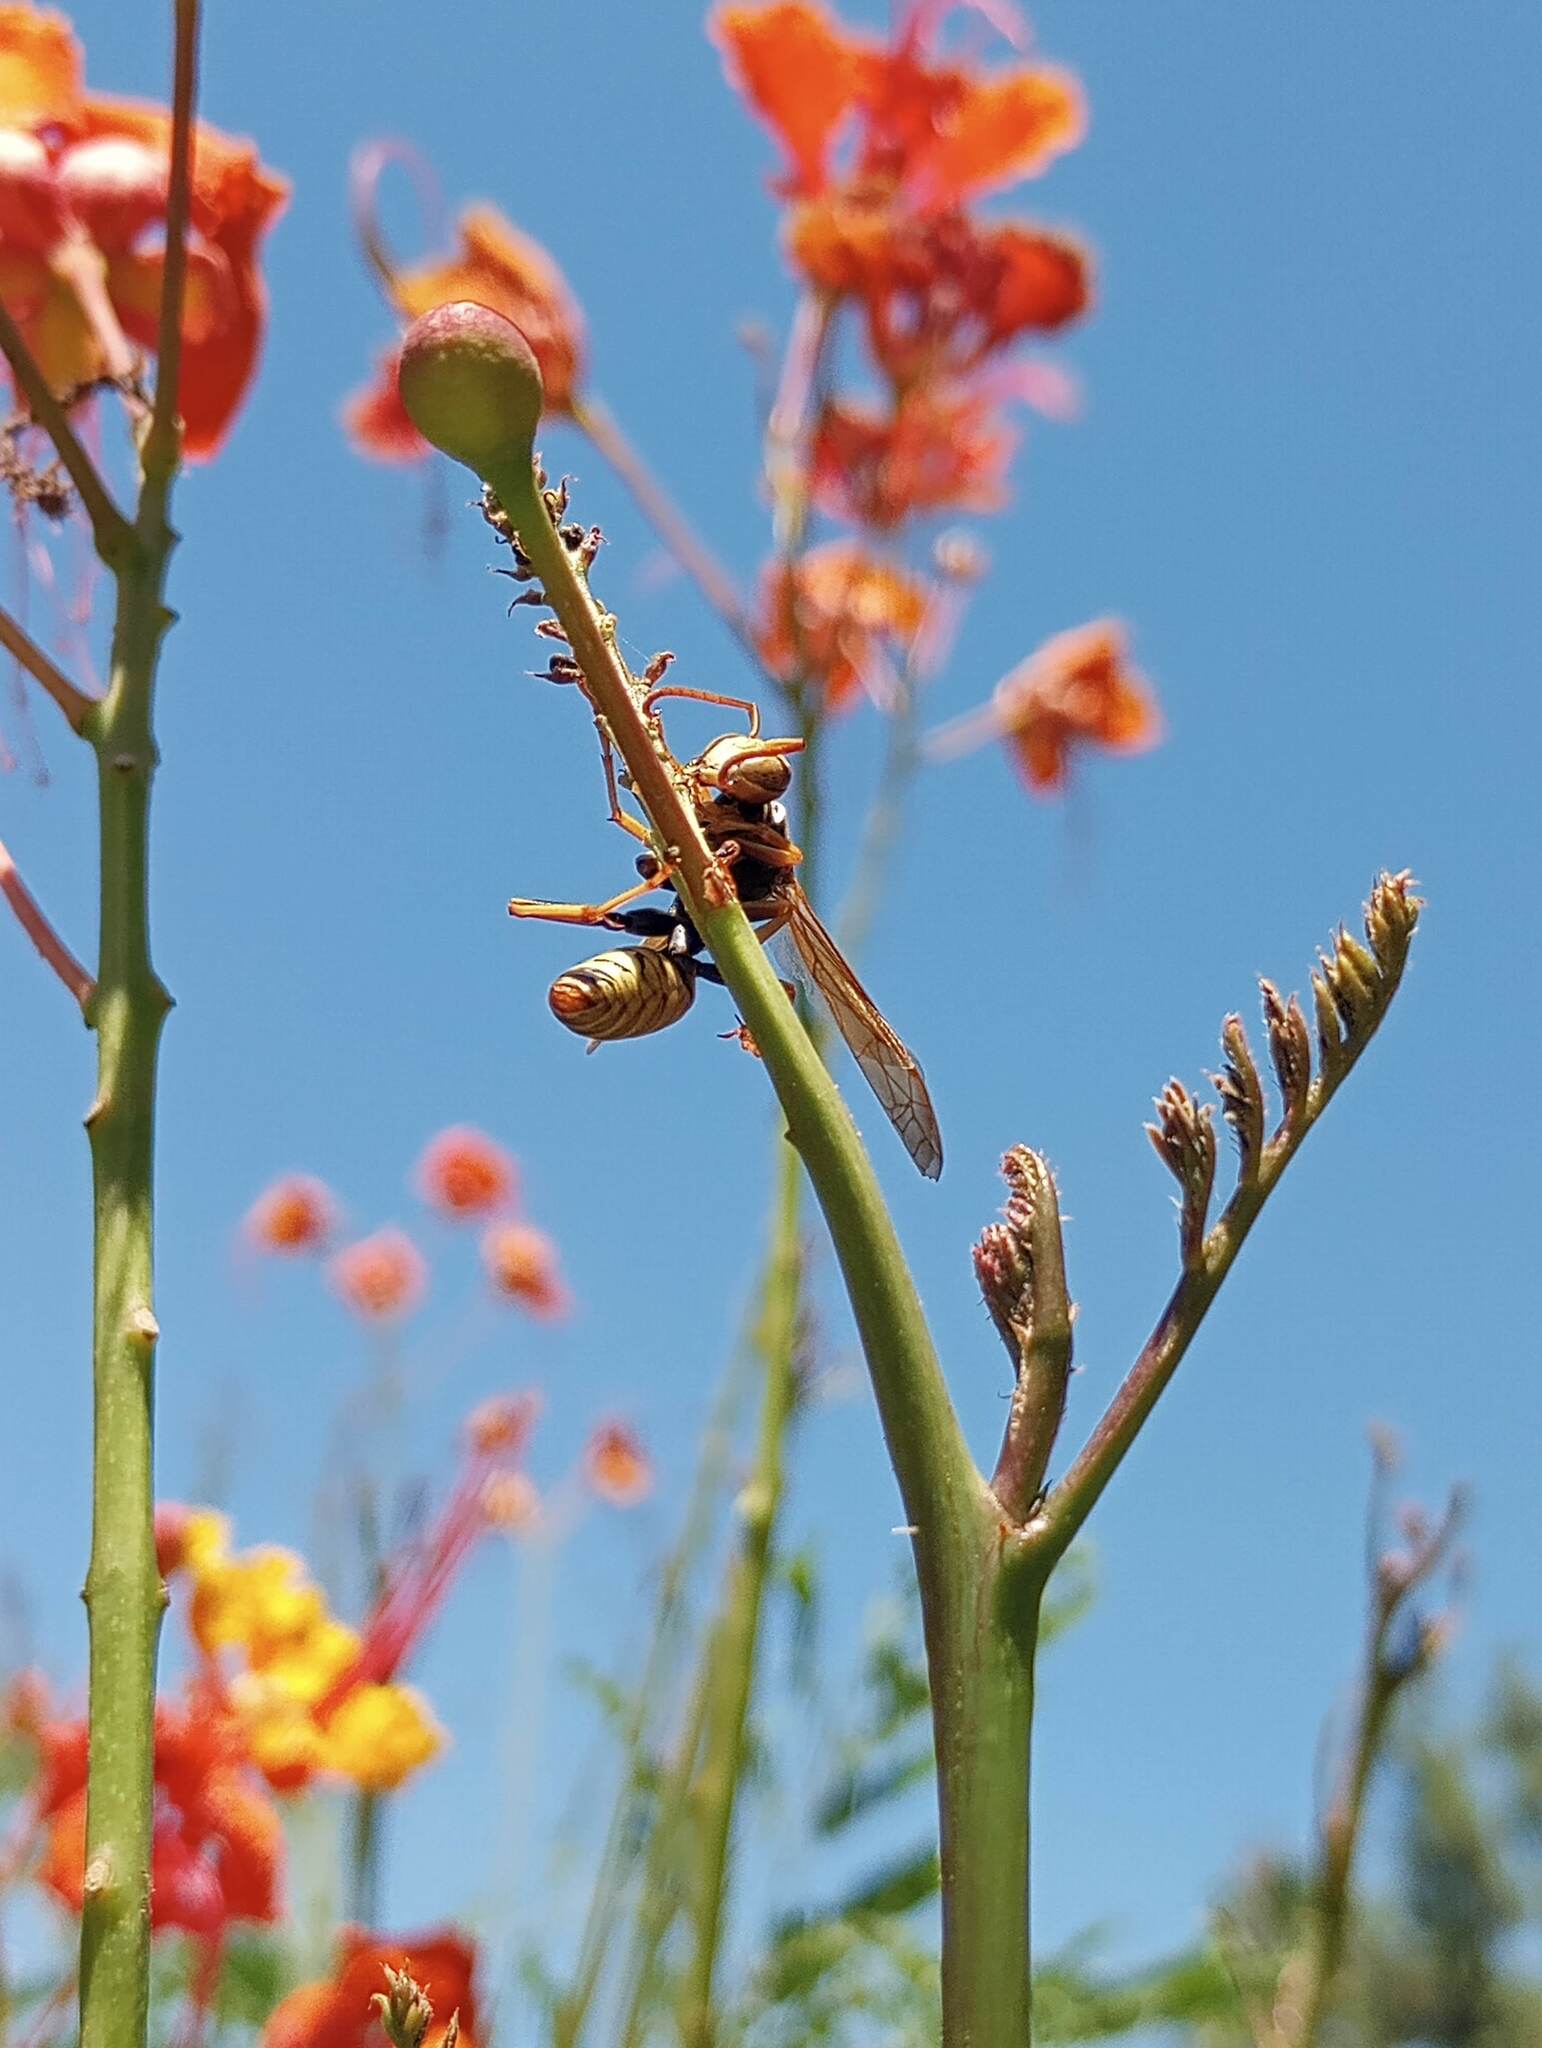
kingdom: Animalia
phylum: Arthropoda
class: Insecta
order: Hymenoptera
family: Vespidae
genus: Fuscopolistes
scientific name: Fuscopolistes
